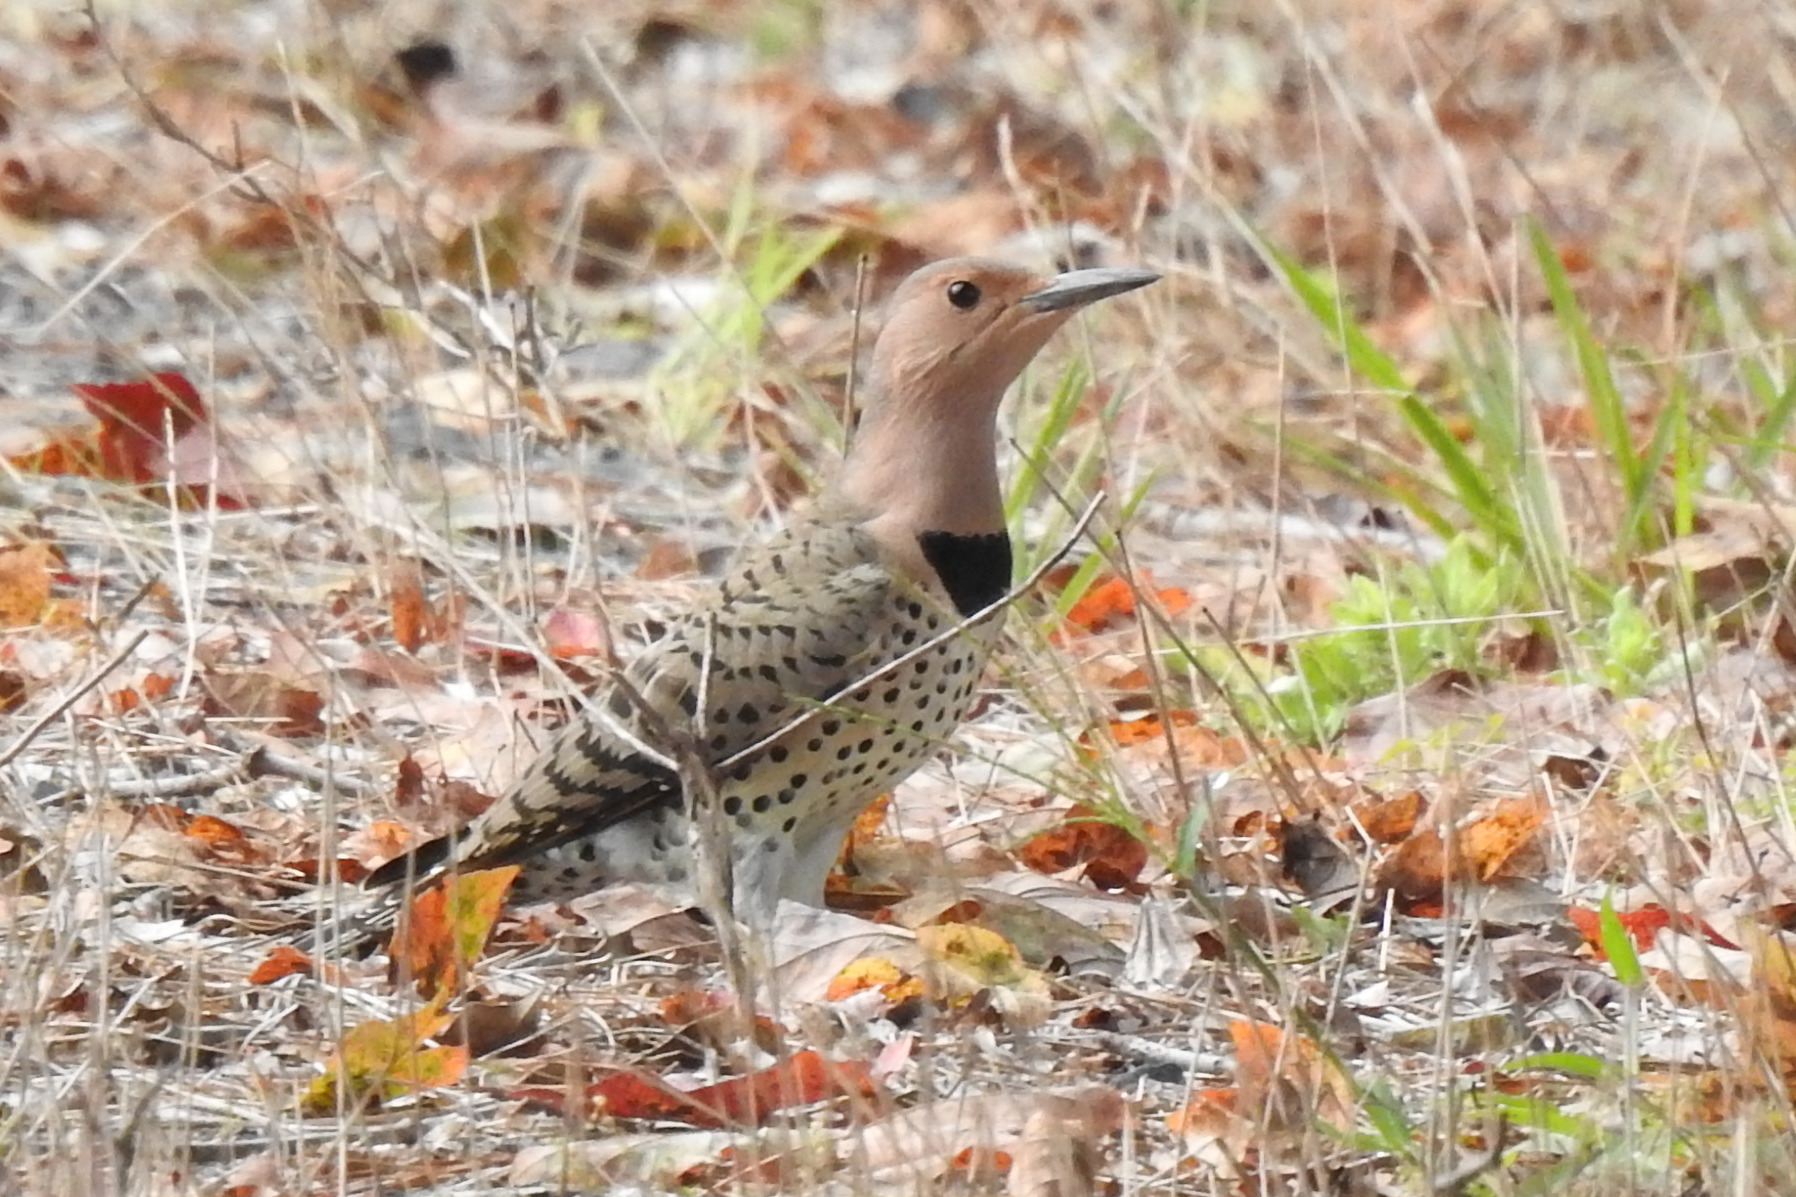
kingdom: Animalia
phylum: Chordata
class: Aves
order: Piciformes
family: Picidae
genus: Colaptes
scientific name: Colaptes auratus
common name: Northern flicker
